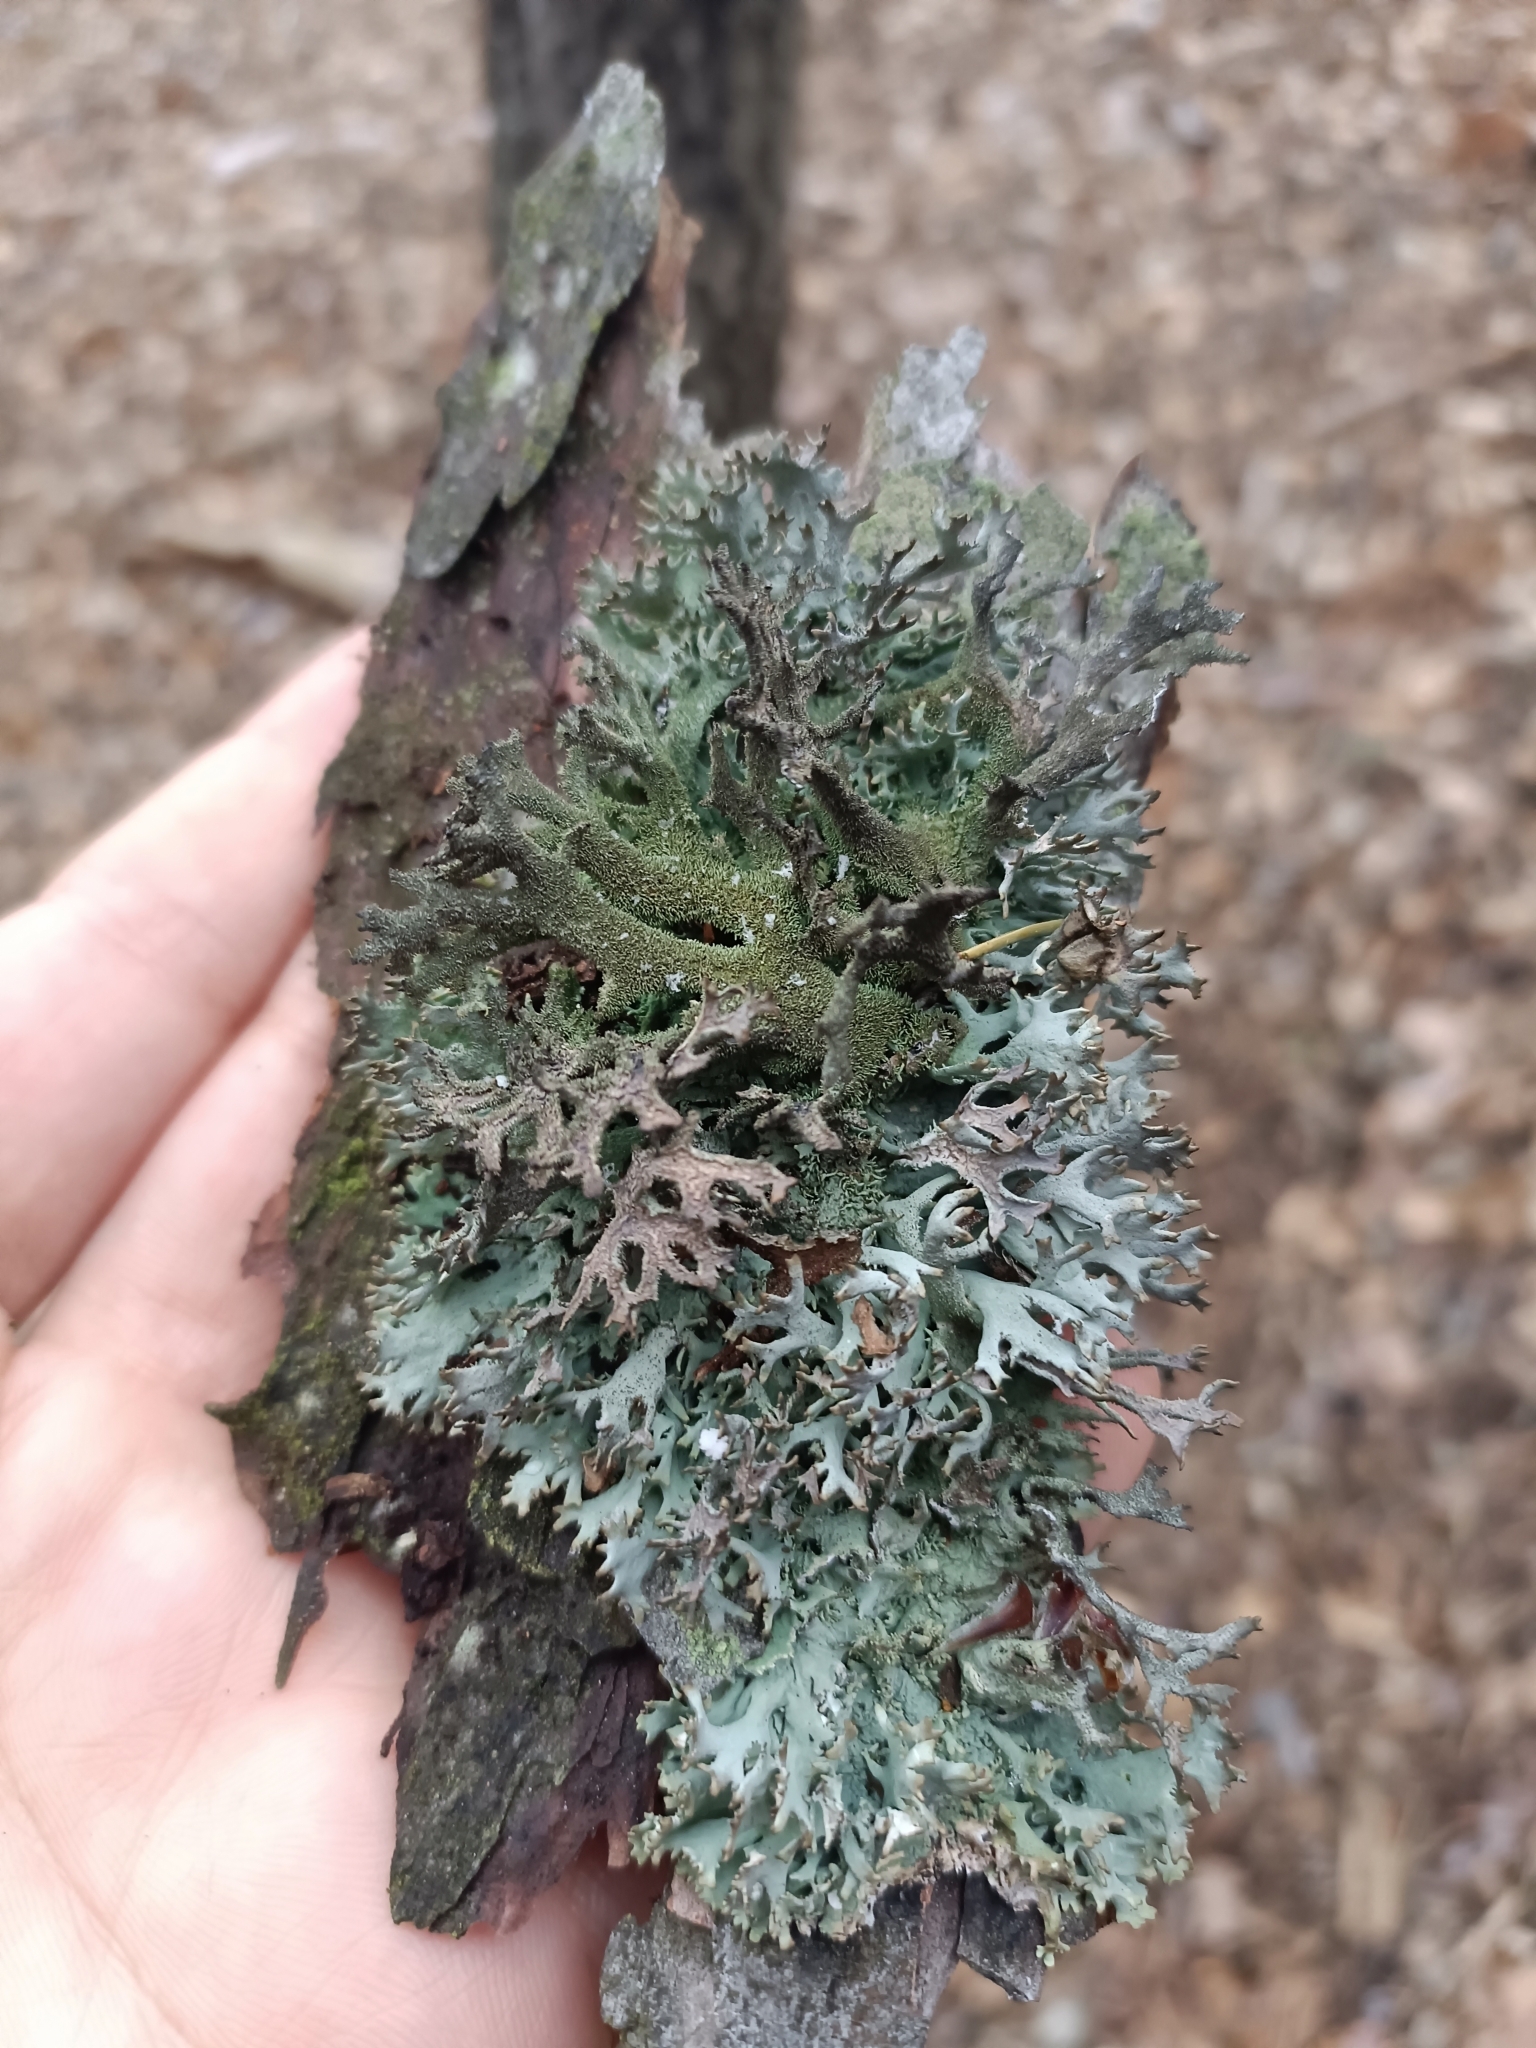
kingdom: Fungi
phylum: Ascomycota
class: Lecanoromycetes
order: Lecanorales
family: Parmeliaceae
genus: Pseudevernia
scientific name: Pseudevernia furfuracea
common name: Tree moss
